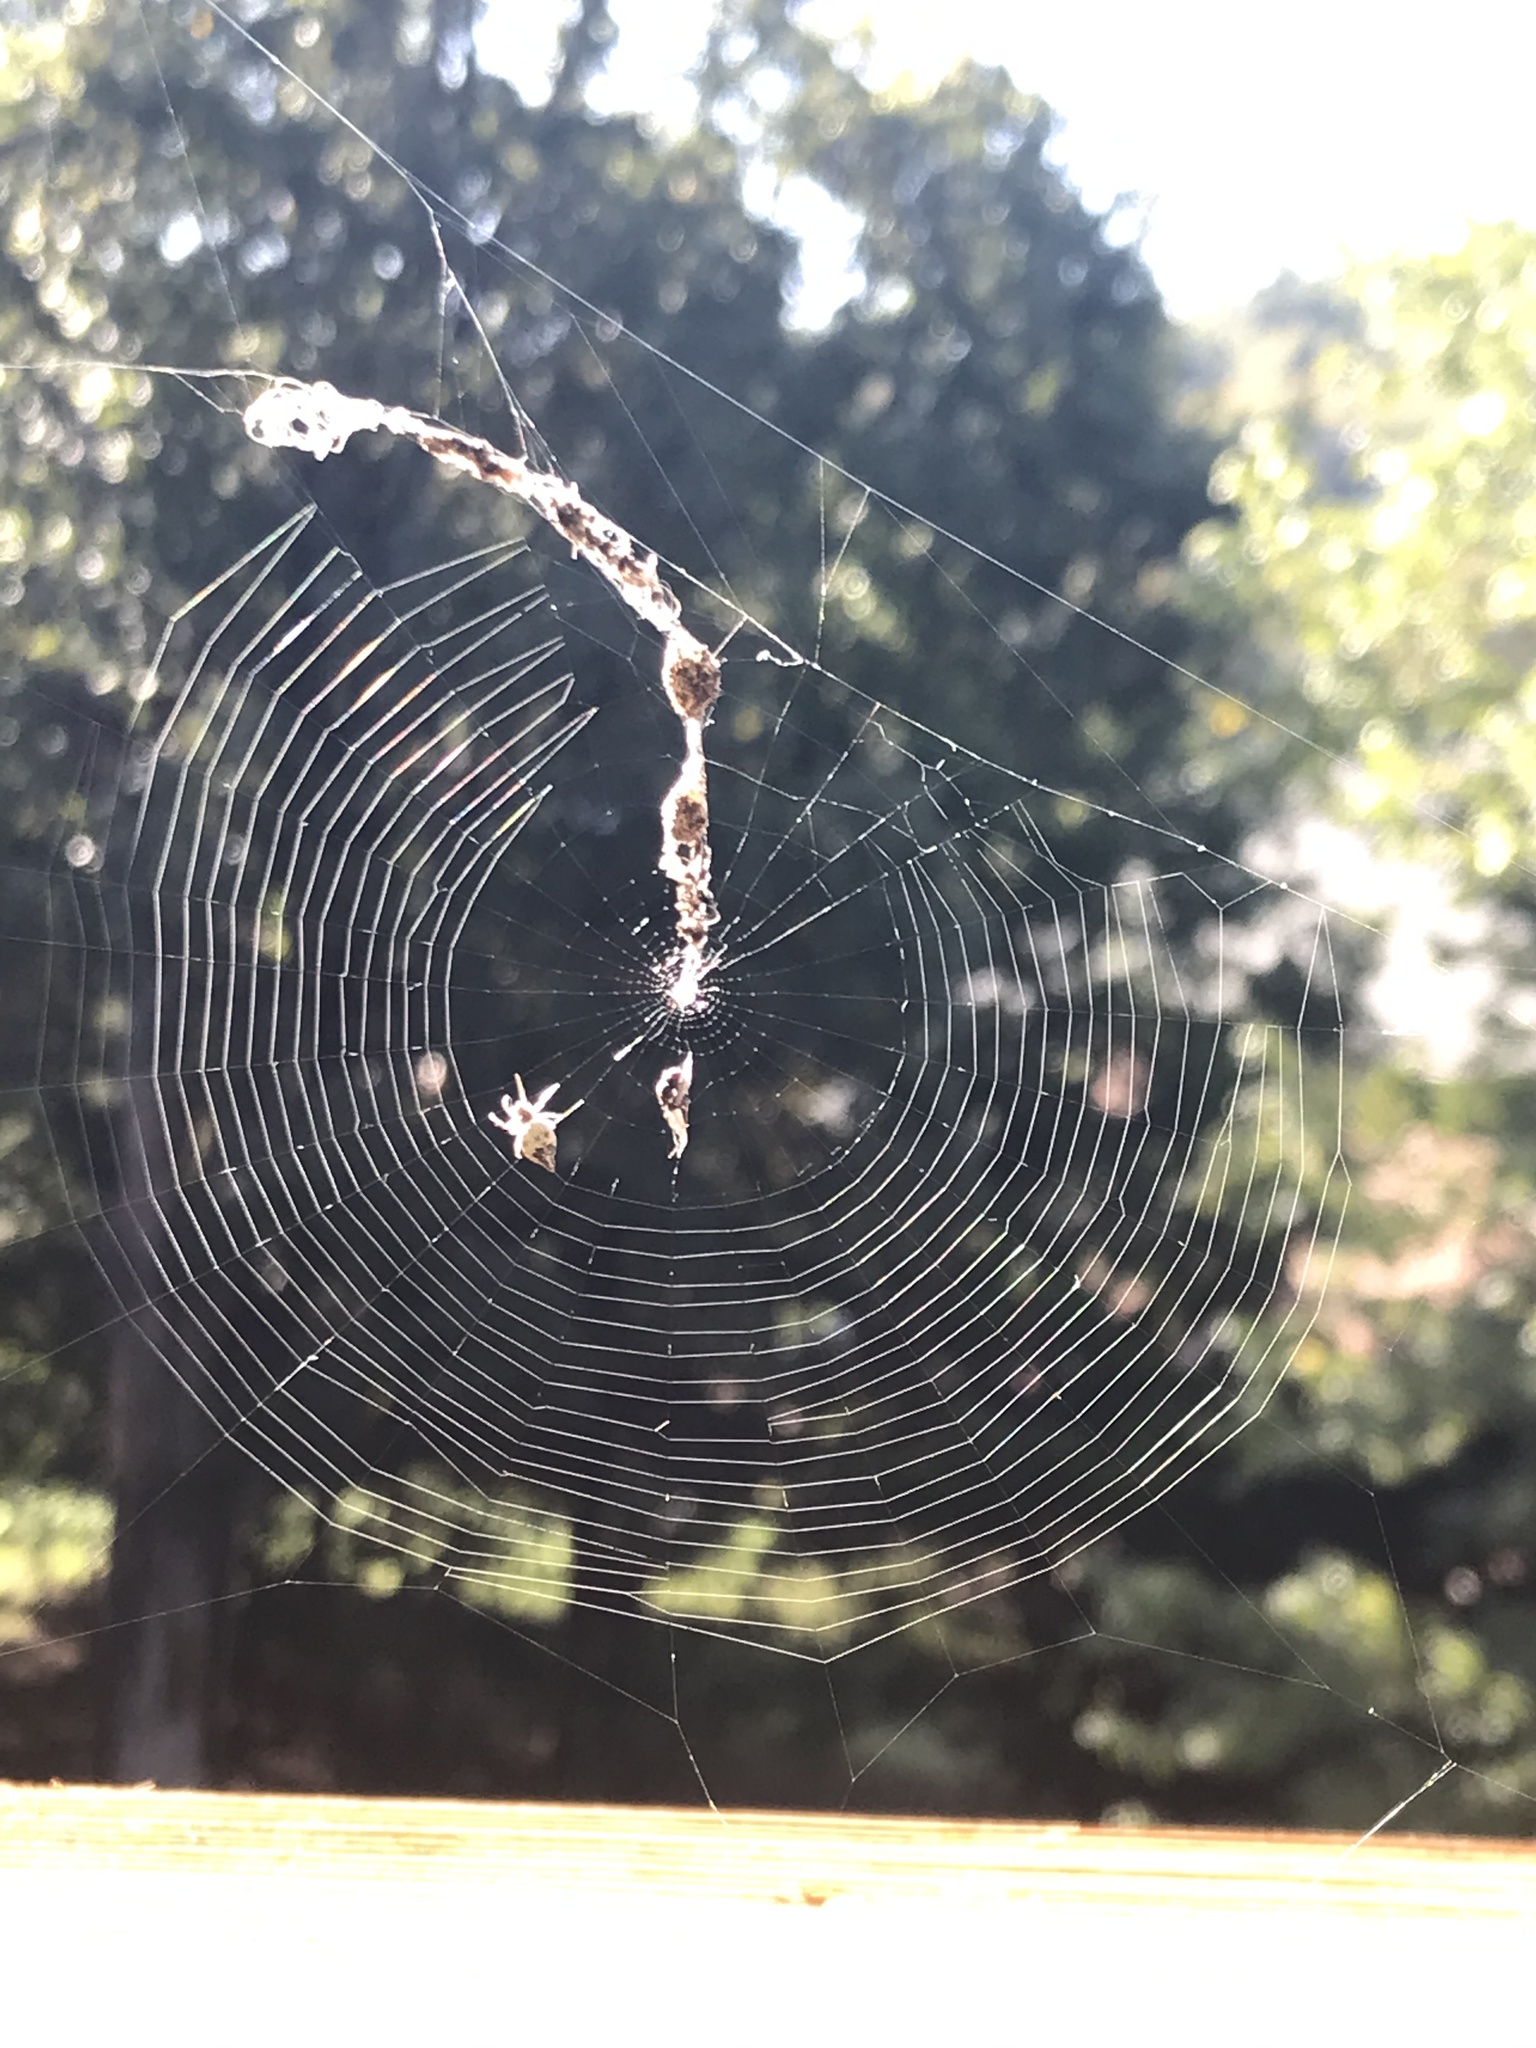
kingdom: Animalia
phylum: Arthropoda
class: Arachnida
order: Araneae
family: Araneidae
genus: Cyclosa
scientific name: Cyclosa turbinata
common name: Orb weavers
